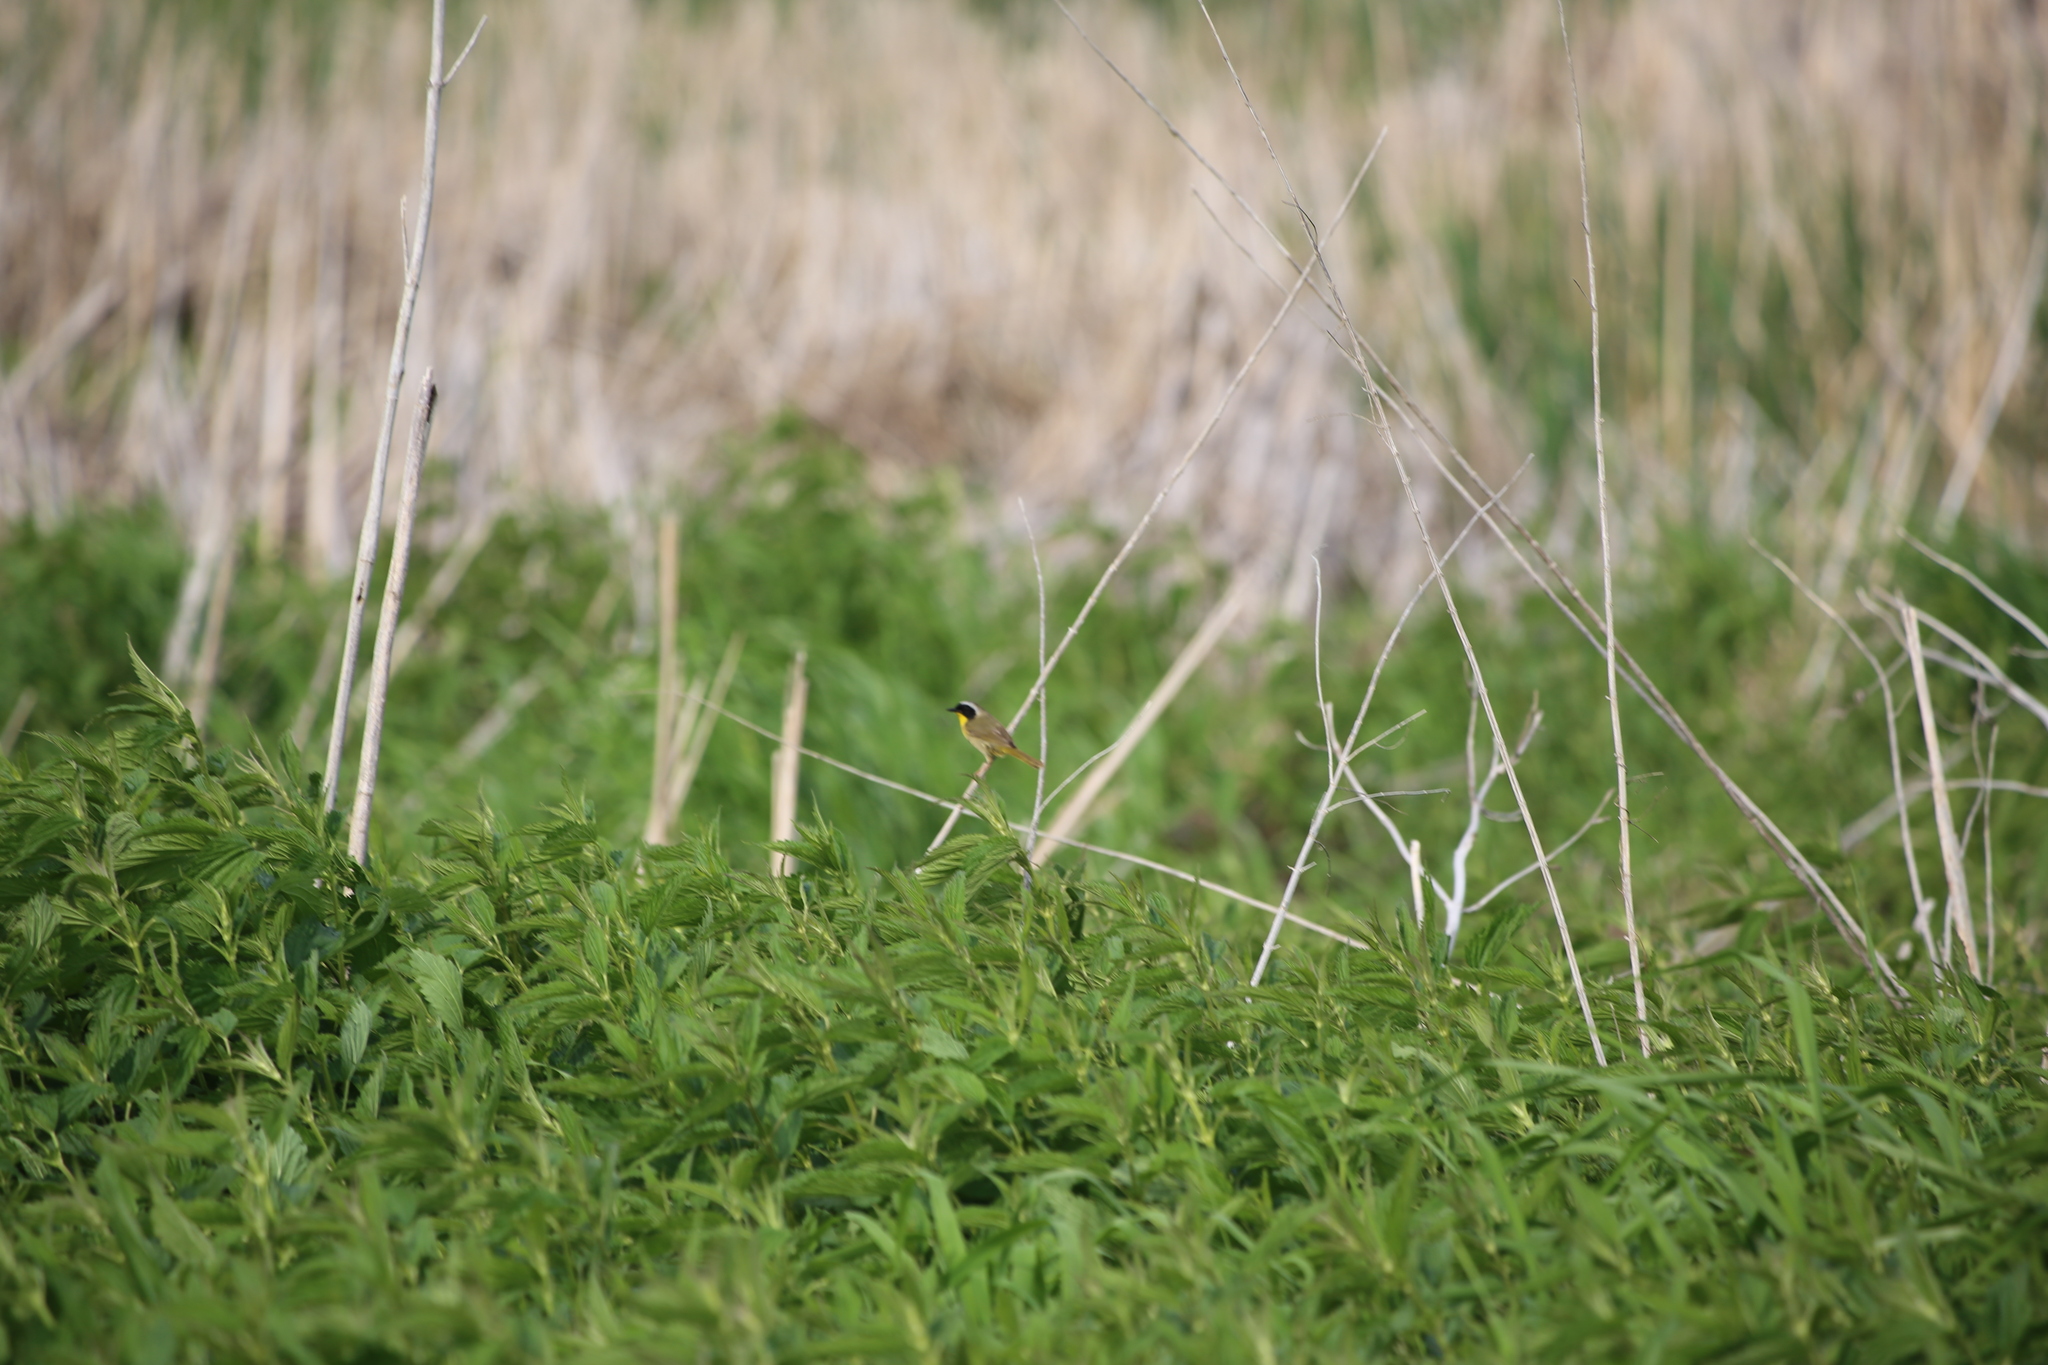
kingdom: Animalia
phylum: Chordata
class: Aves
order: Passeriformes
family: Parulidae
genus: Geothlypis
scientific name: Geothlypis trichas
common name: Common yellowthroat
